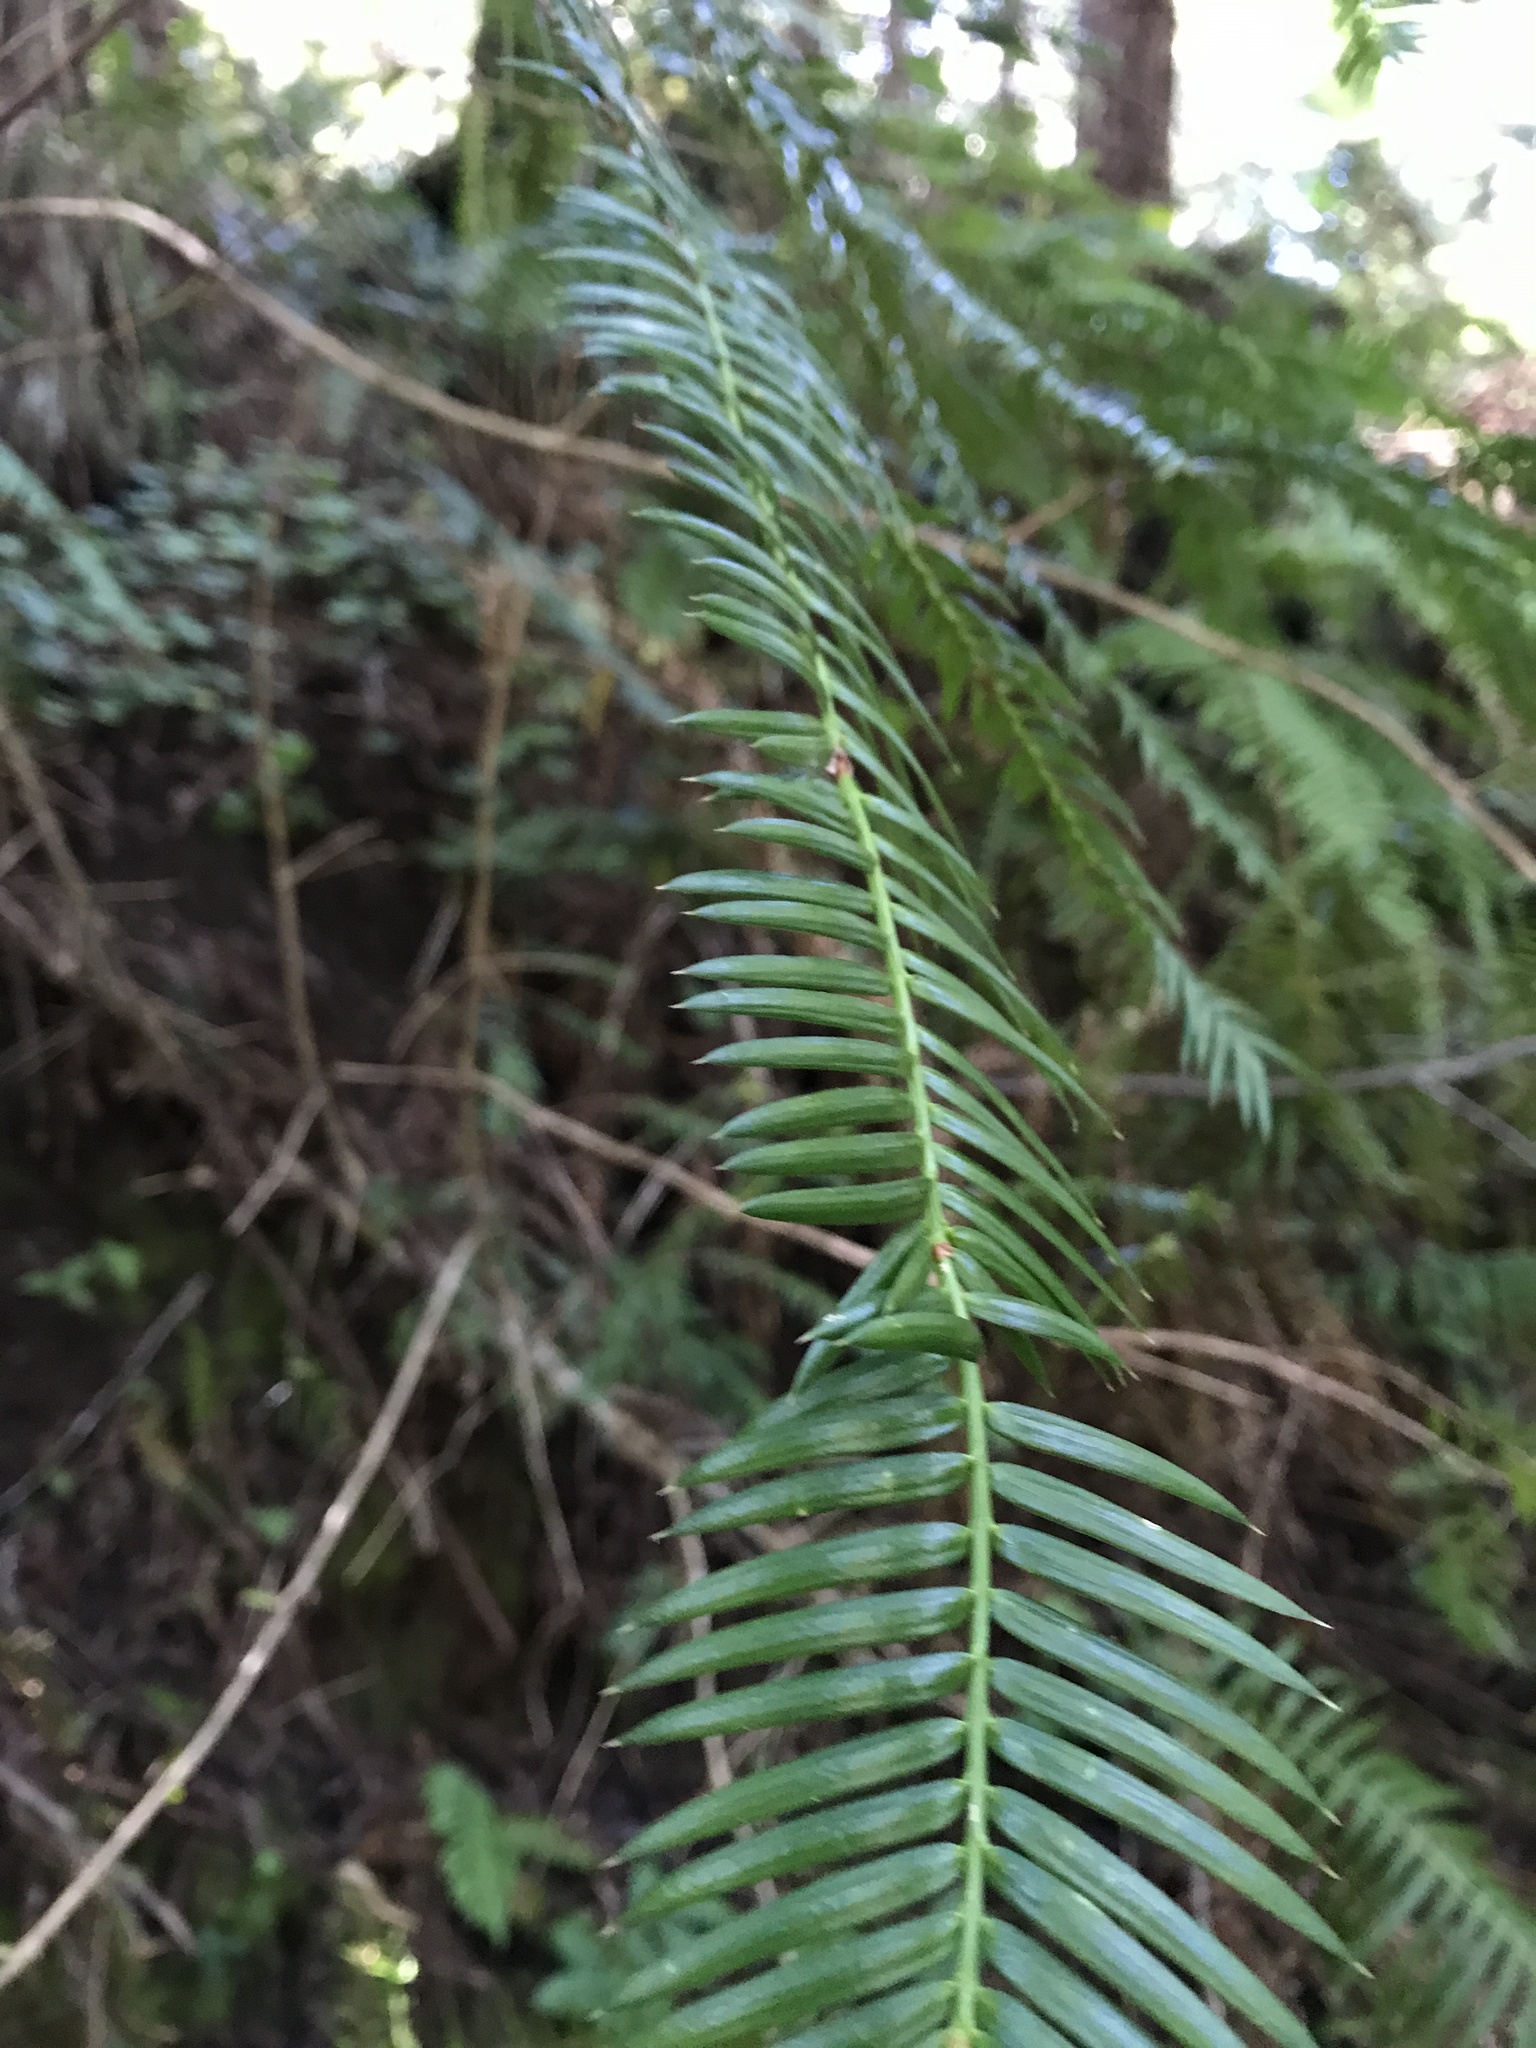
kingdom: Plantae
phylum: Tracheophyta
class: Pinopsida
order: Pinales
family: Taxaceae
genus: Torreya
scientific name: Torreya californica
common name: California torreya
